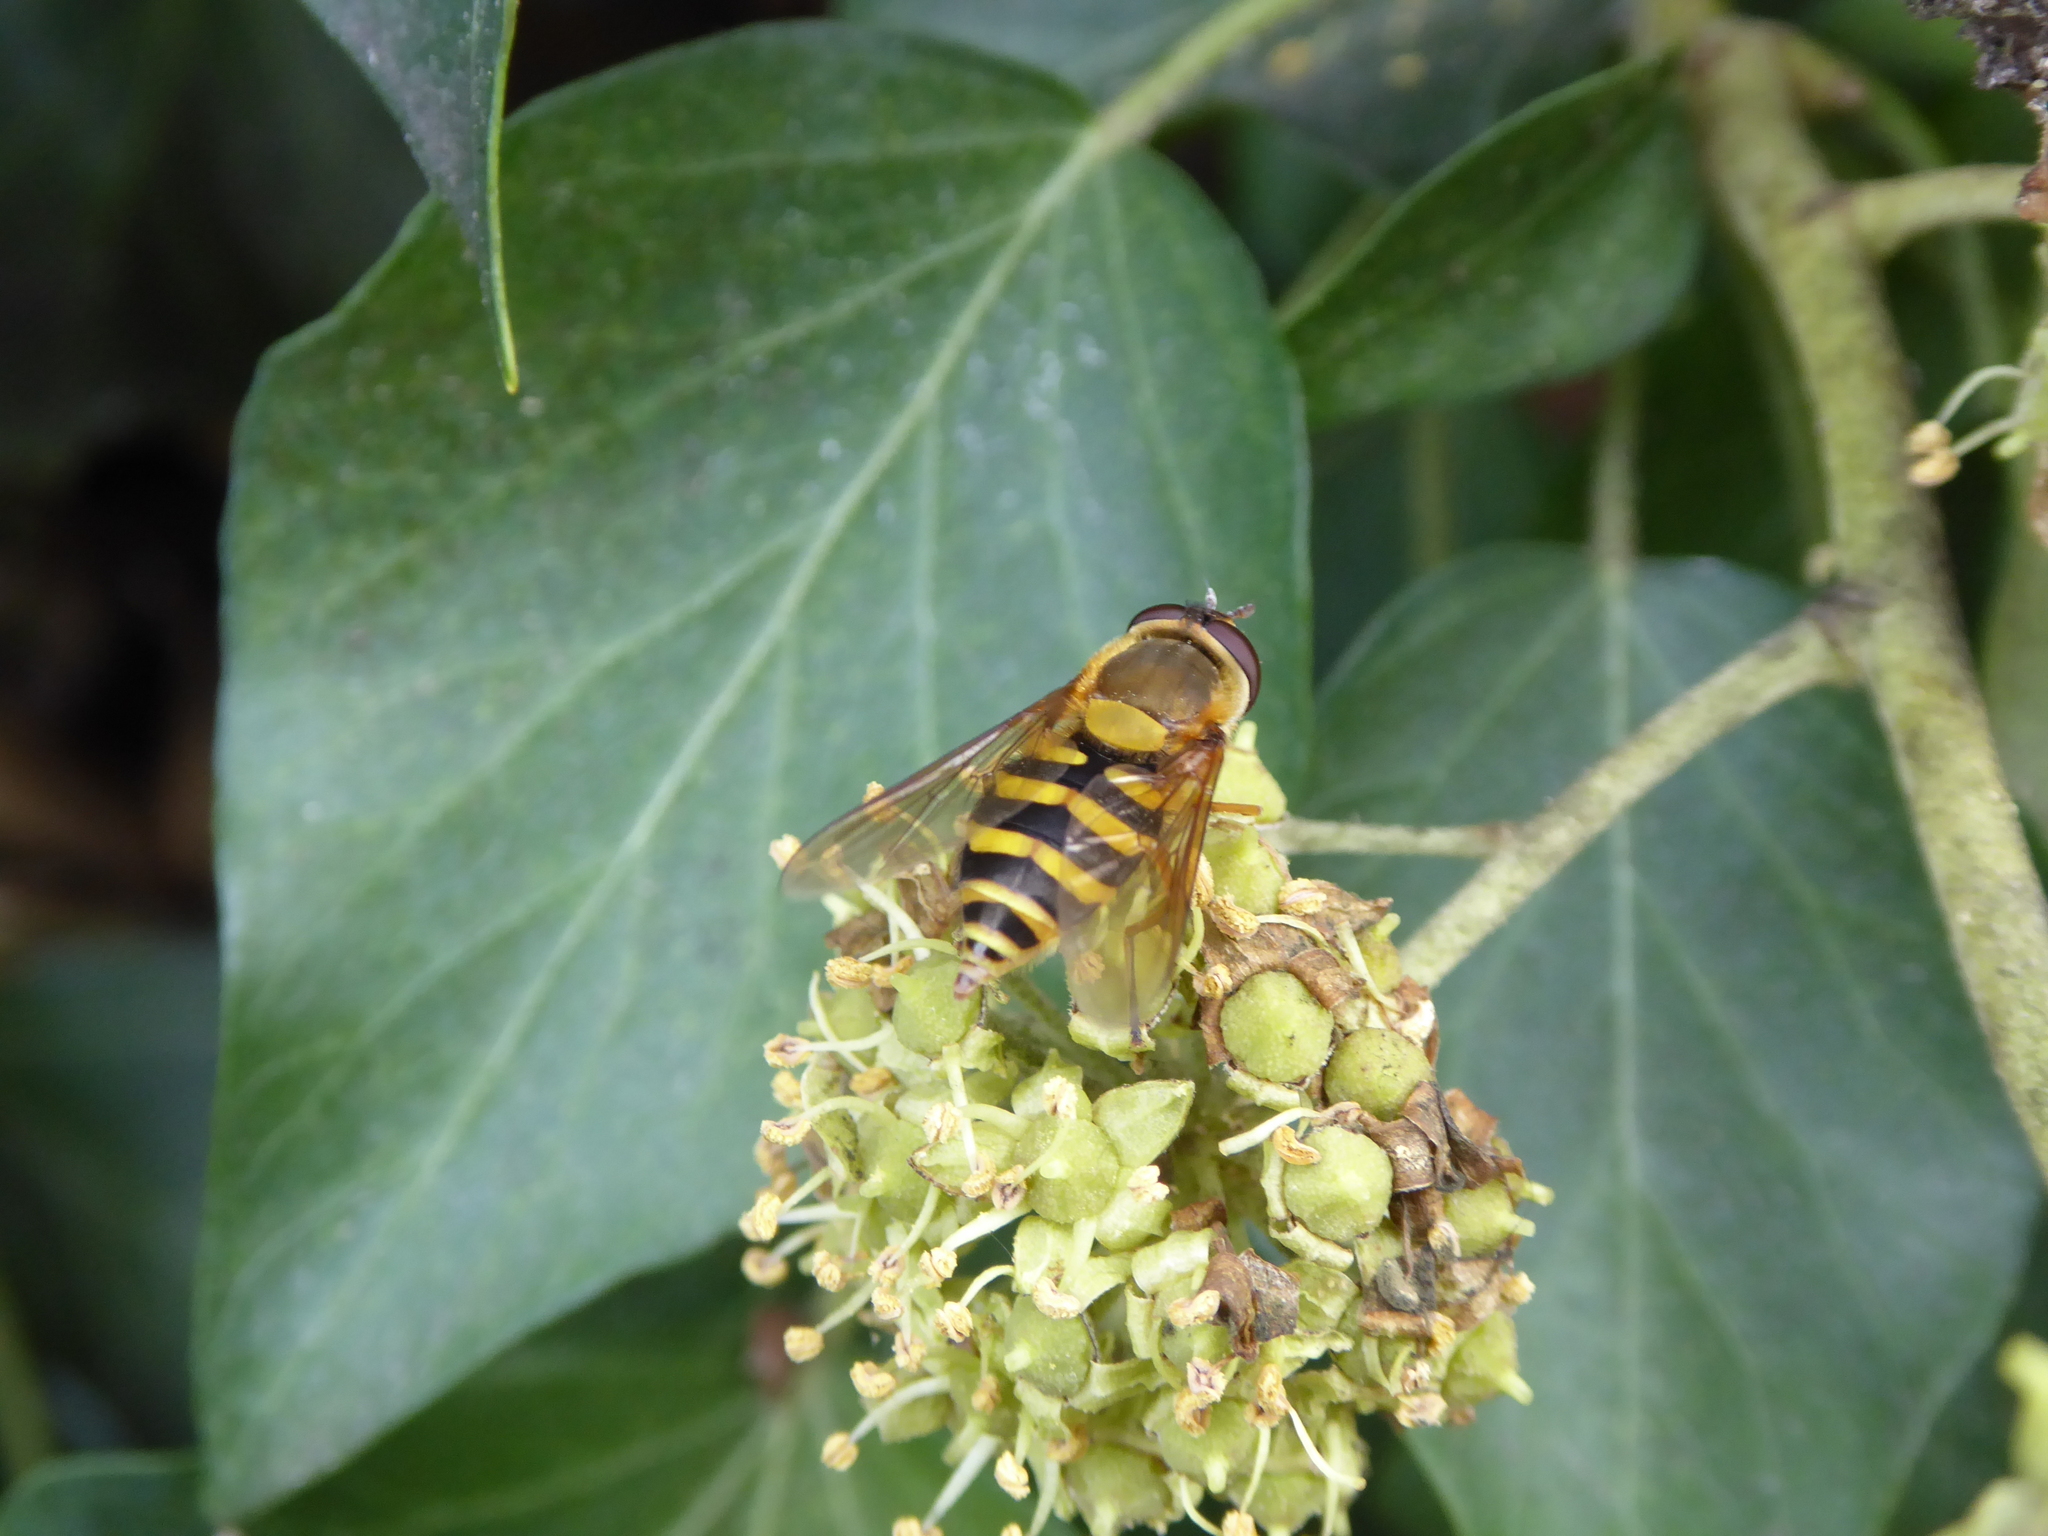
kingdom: Animalia
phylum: Arthropoda
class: Insecta
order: Diptera
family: Syrphidae
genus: Syrphus
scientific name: Syrphus ribesii
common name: Common flower fly
